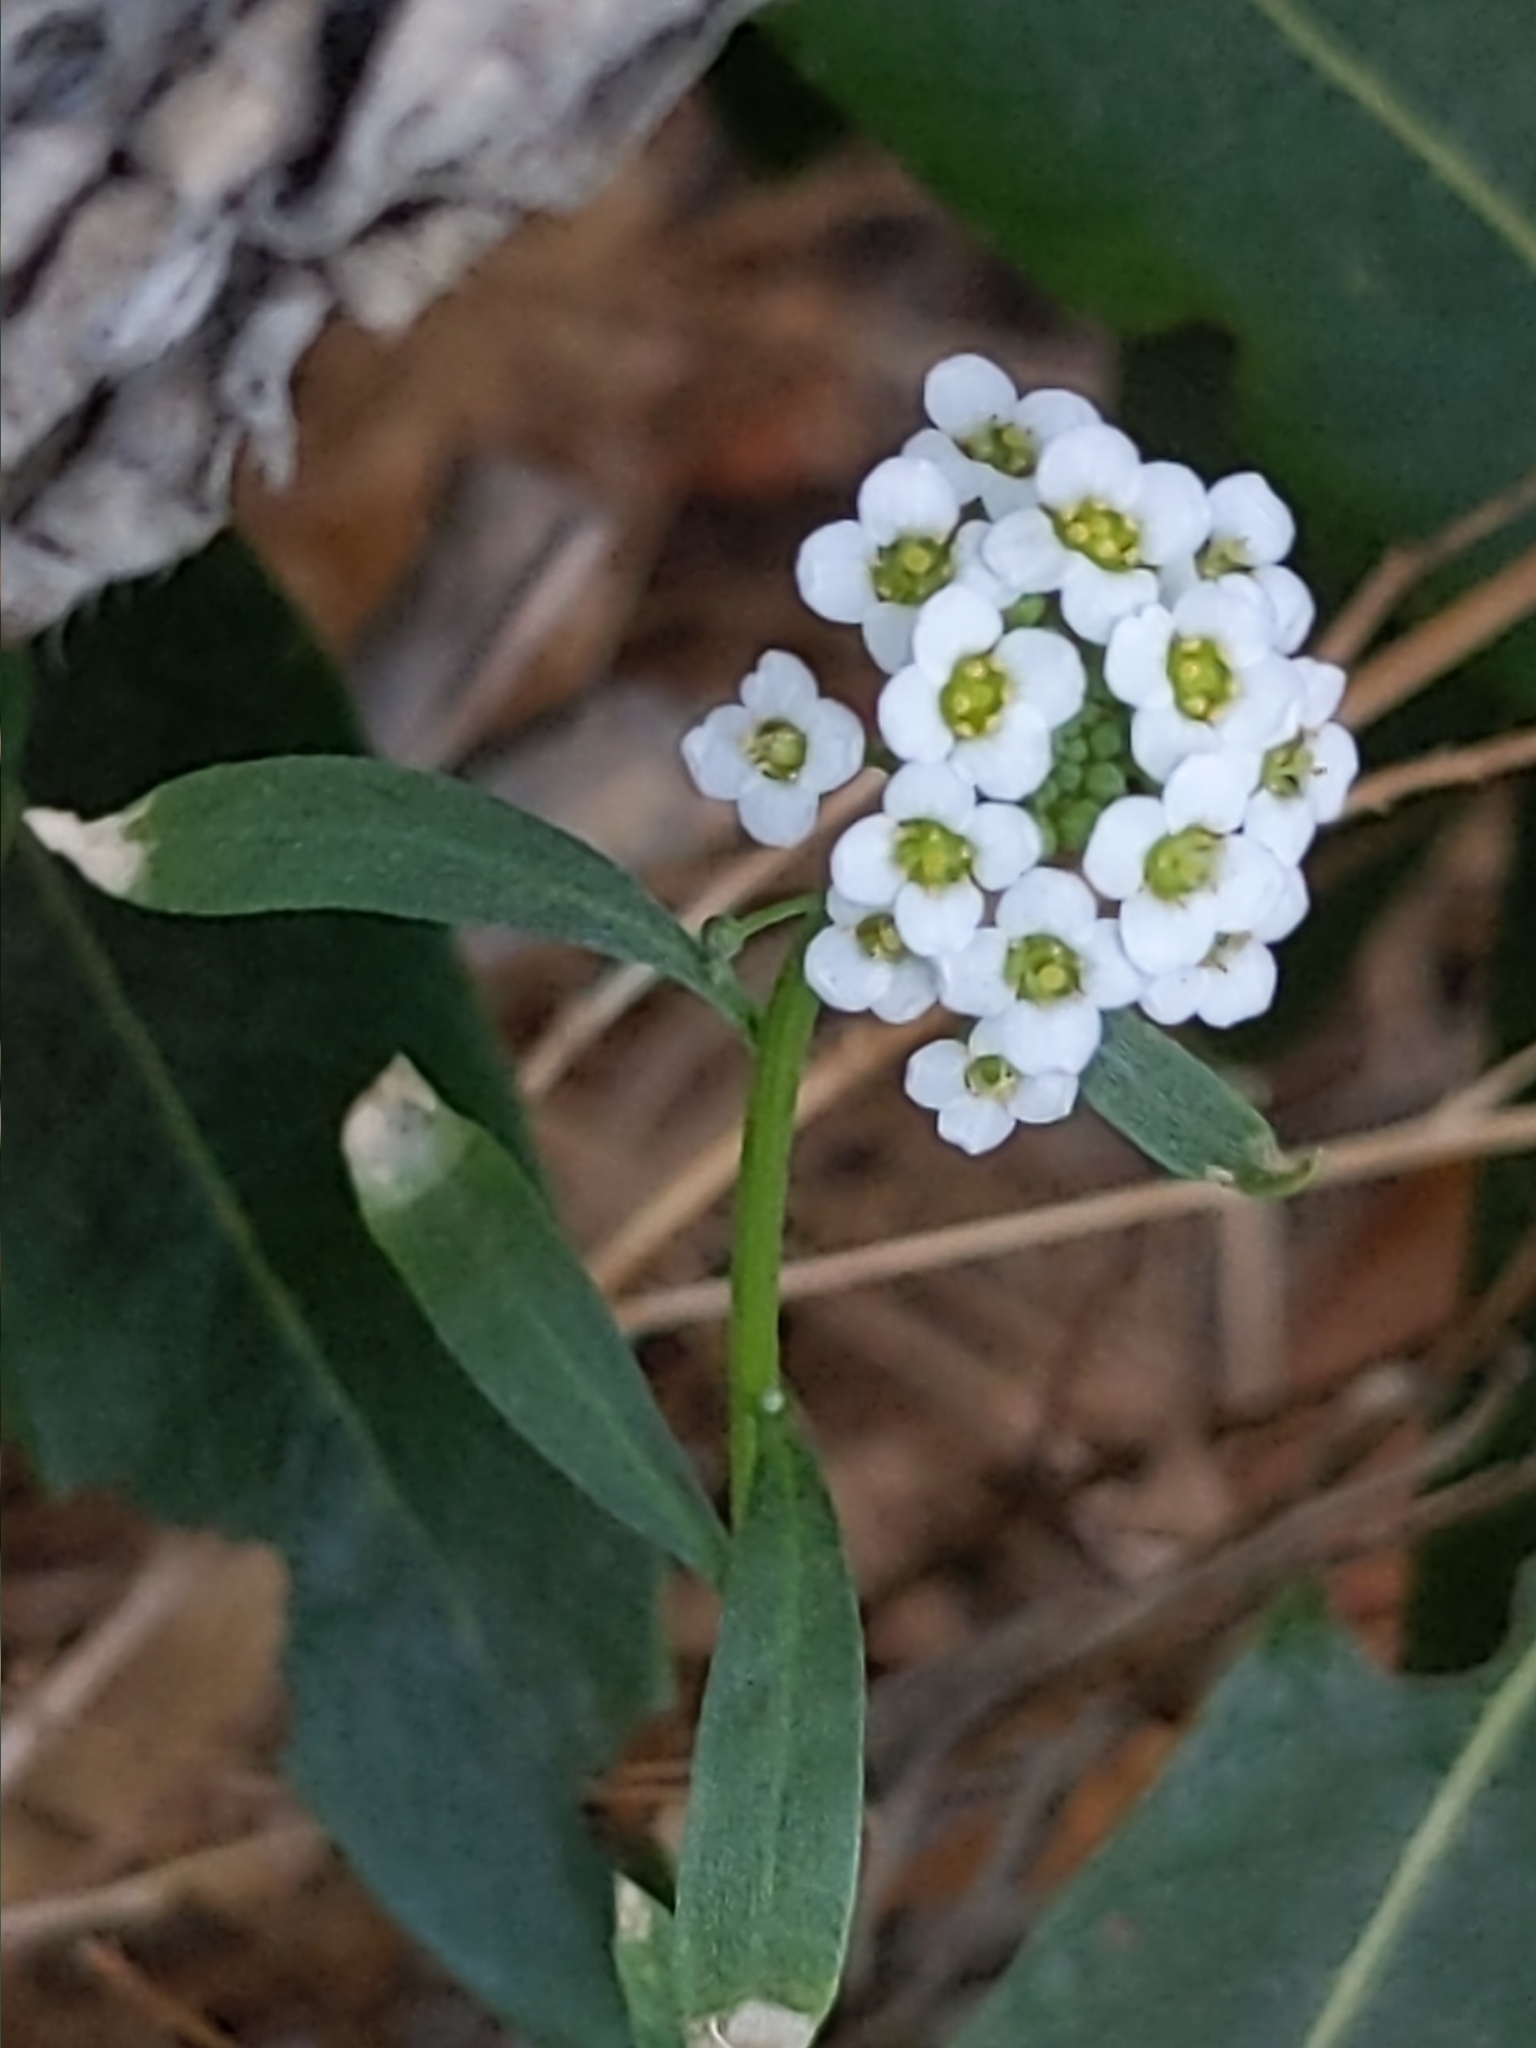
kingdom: Plantae
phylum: Tracheophyta
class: Magnoliopsida
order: Brassicales
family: Brassicaceae
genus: Lobularia
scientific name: Lobularia maritima
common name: Sweet alison
